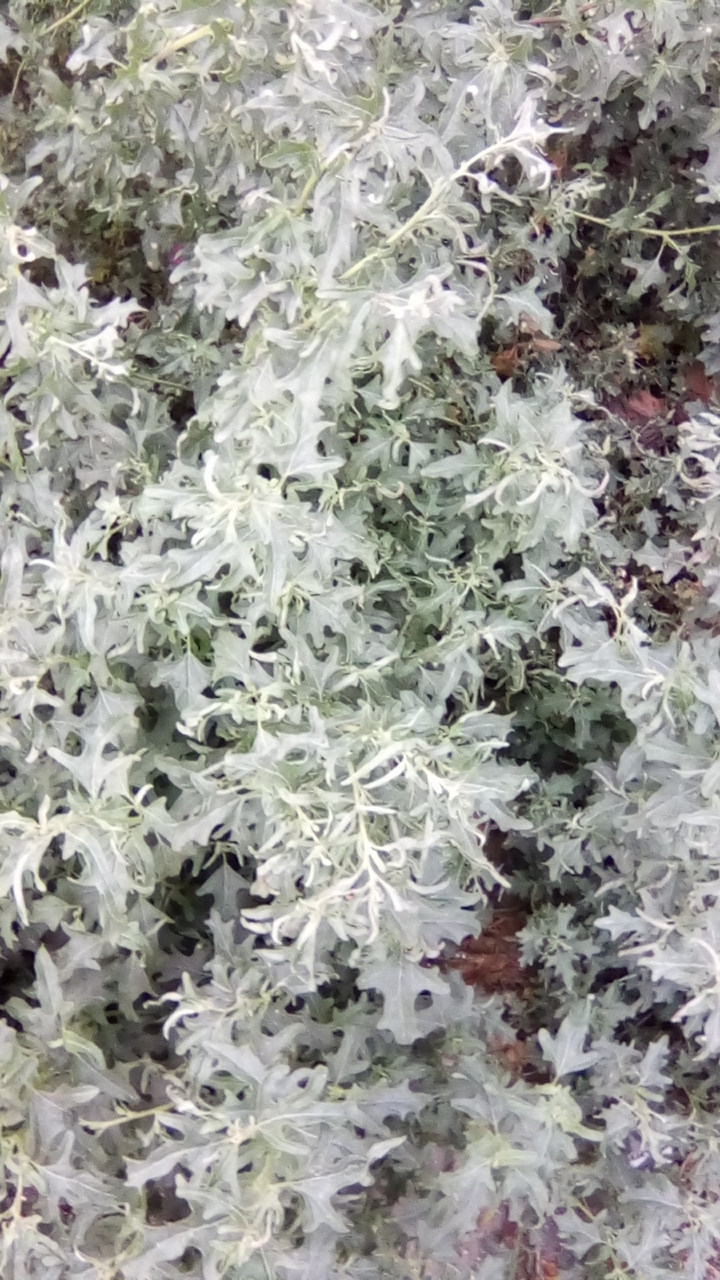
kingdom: Plantae
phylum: Tracheophyta
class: Magnoliopsida
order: Caryophyllales
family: Amaranthaceae
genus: Atriplex
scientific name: Atriplex tatarica
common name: Tatarian orache
